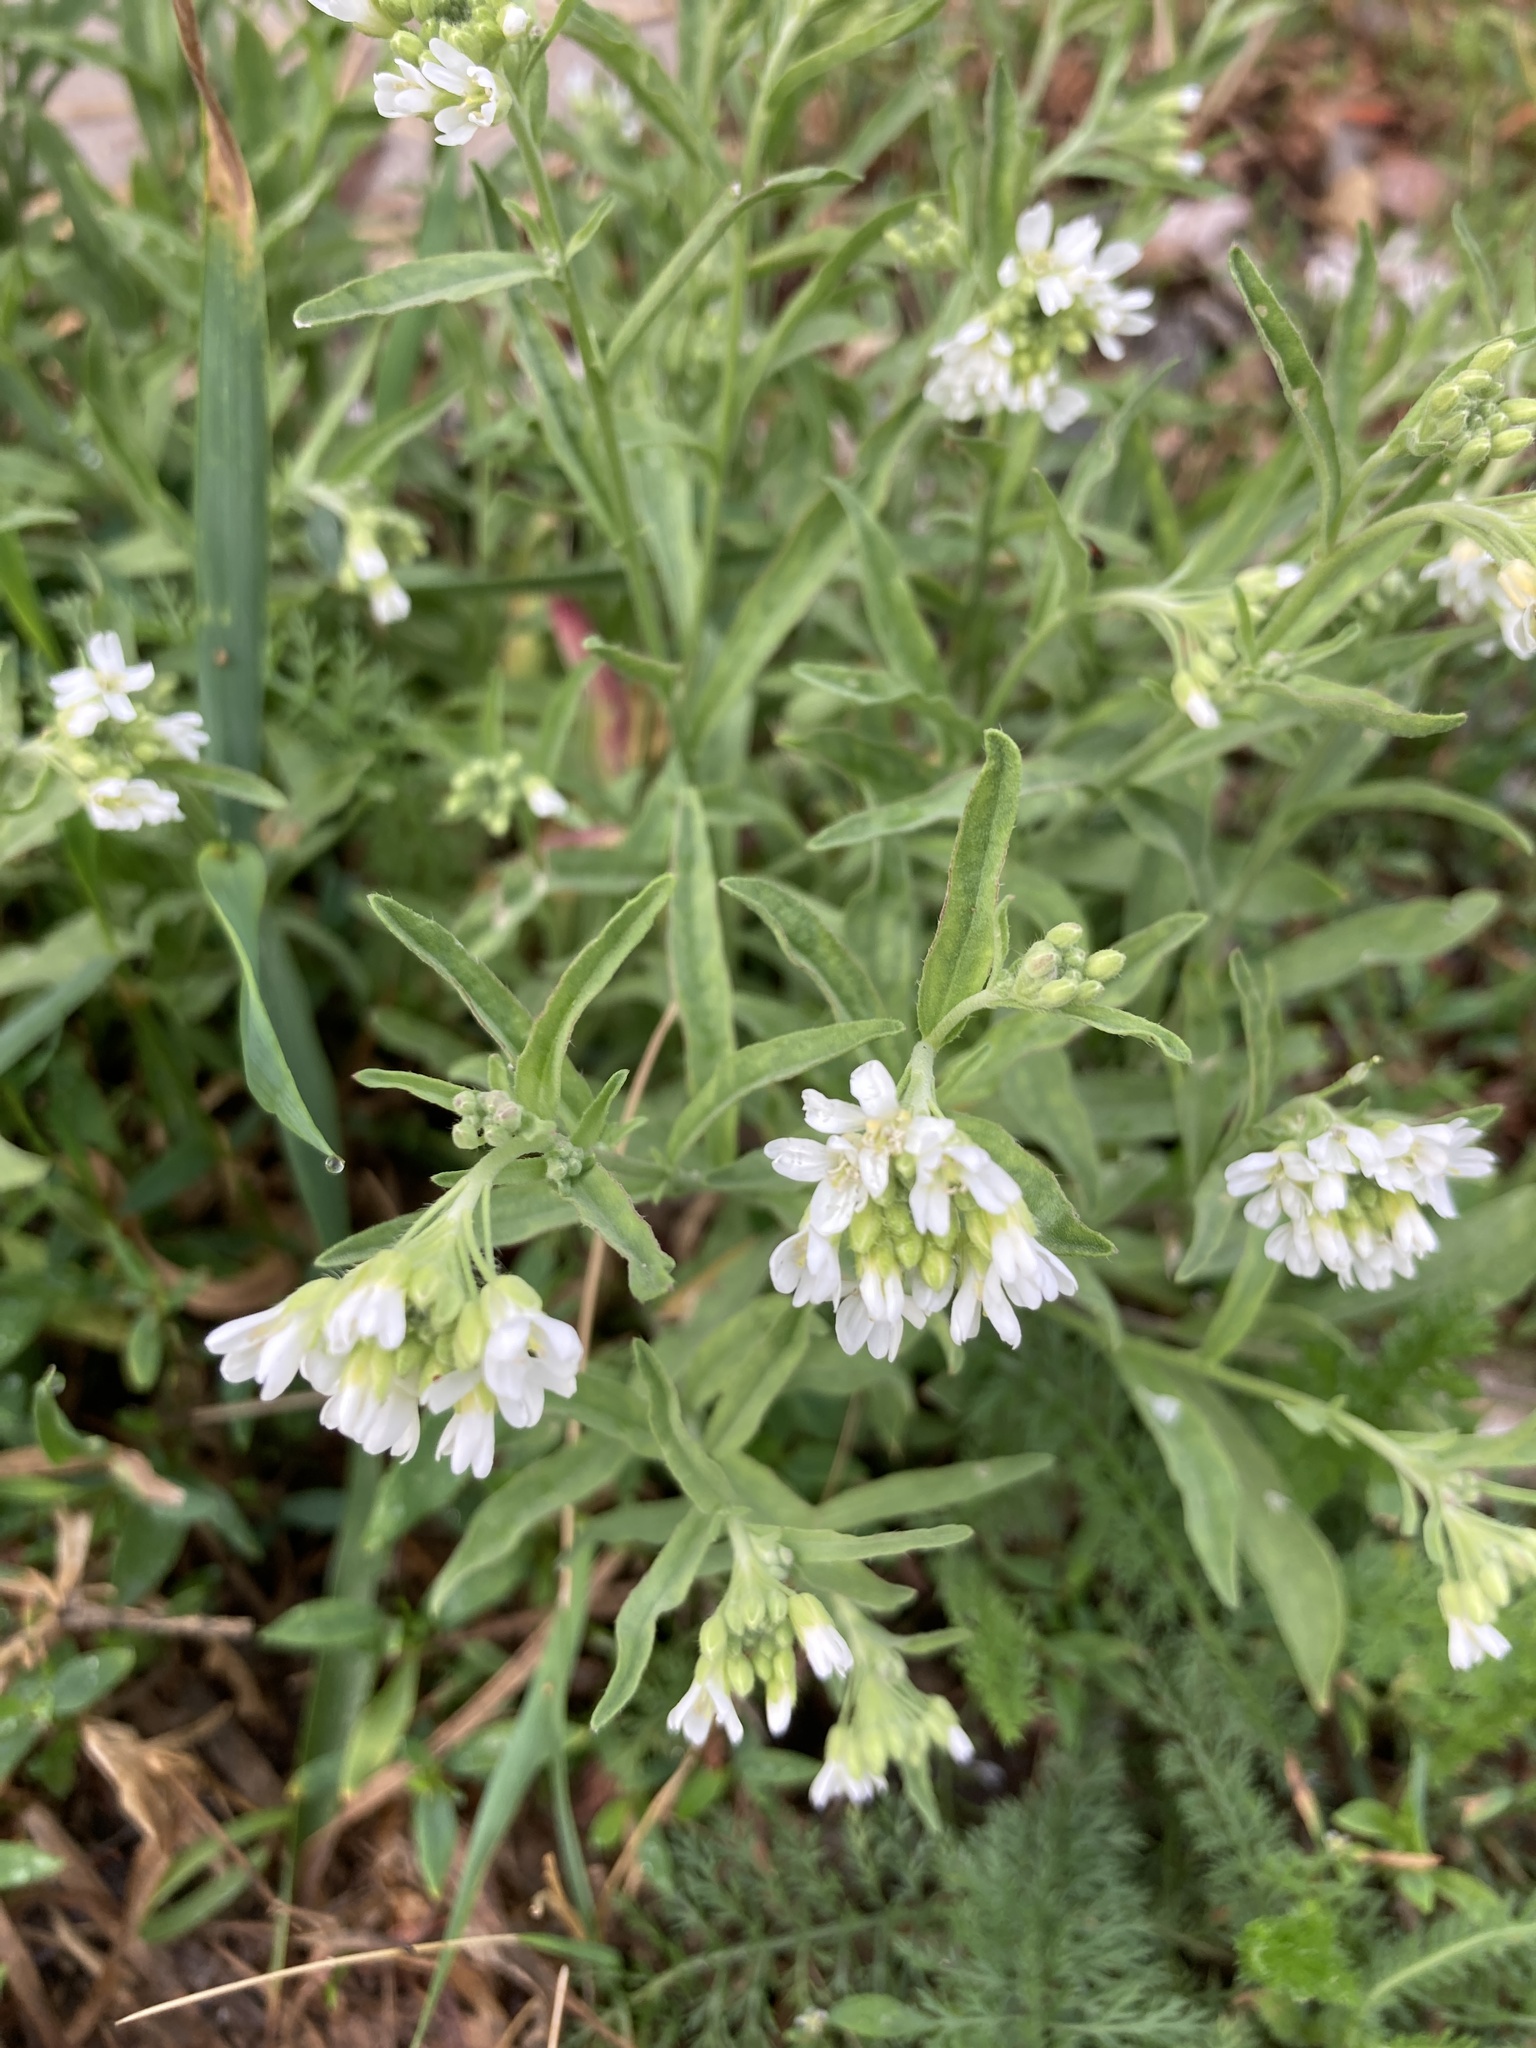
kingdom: Plantae
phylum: Tracheophyta
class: Magnoliopsida
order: Brassicales
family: Brassicaceae
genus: Berteroa
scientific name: Berteroa incana
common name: Hoary alison
